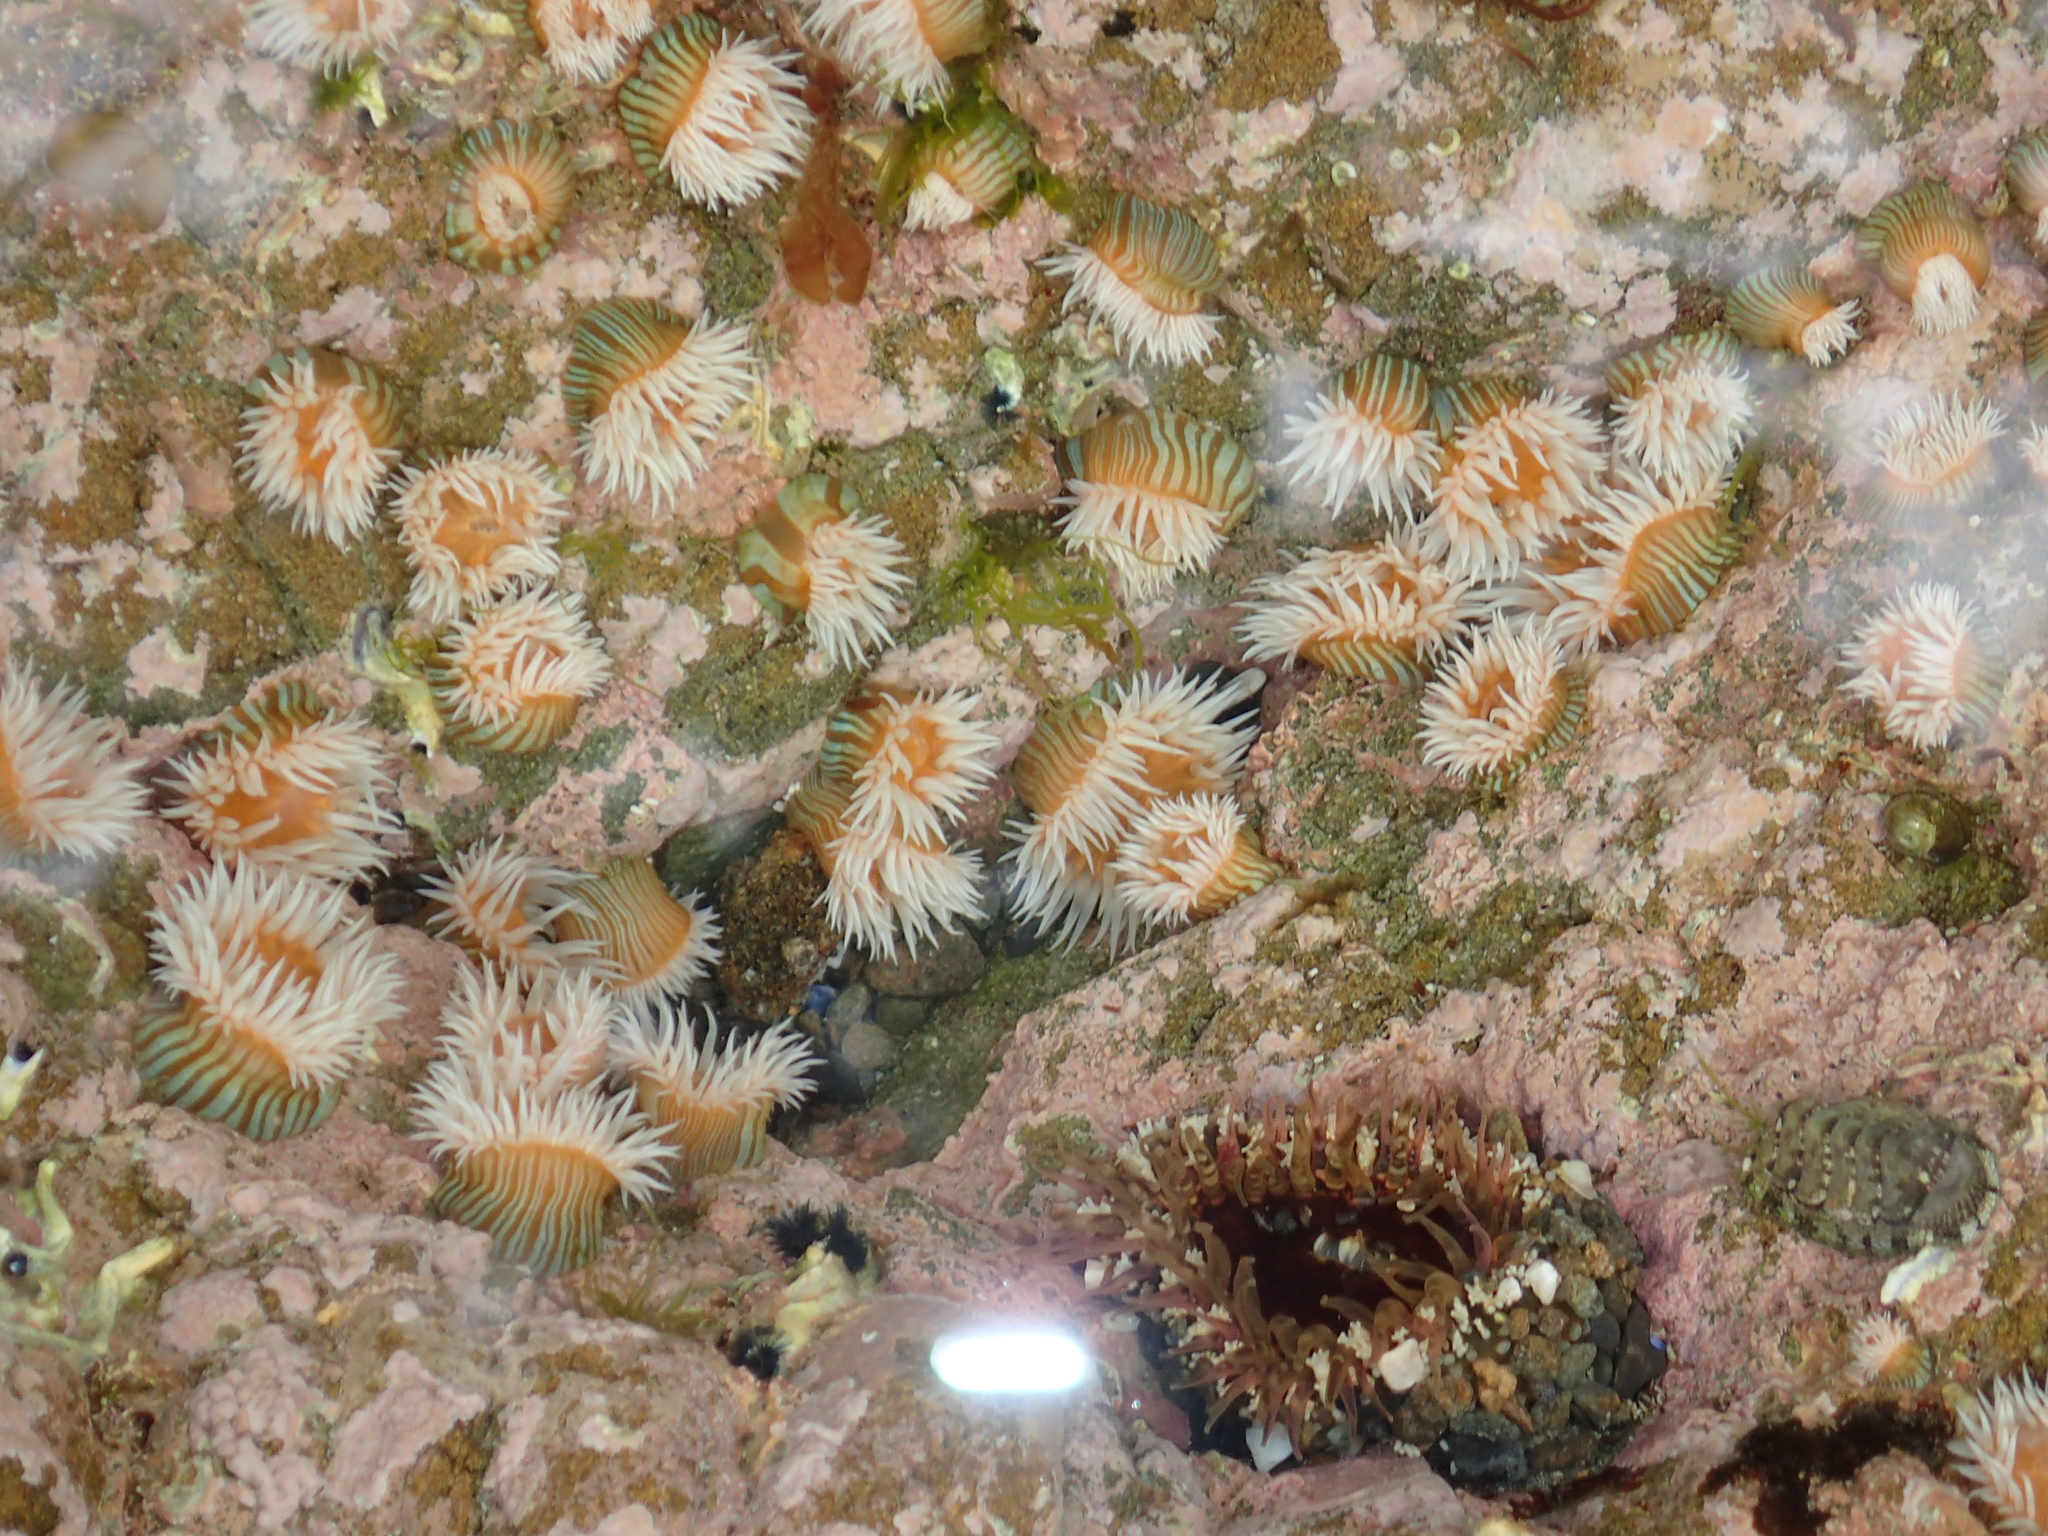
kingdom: Animalia
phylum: Cnidaria
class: Anthozoa
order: Actiniaria
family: Sagartiidae
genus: Anthothoe
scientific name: Anthothoe albocincta
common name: Orange striped anemone
